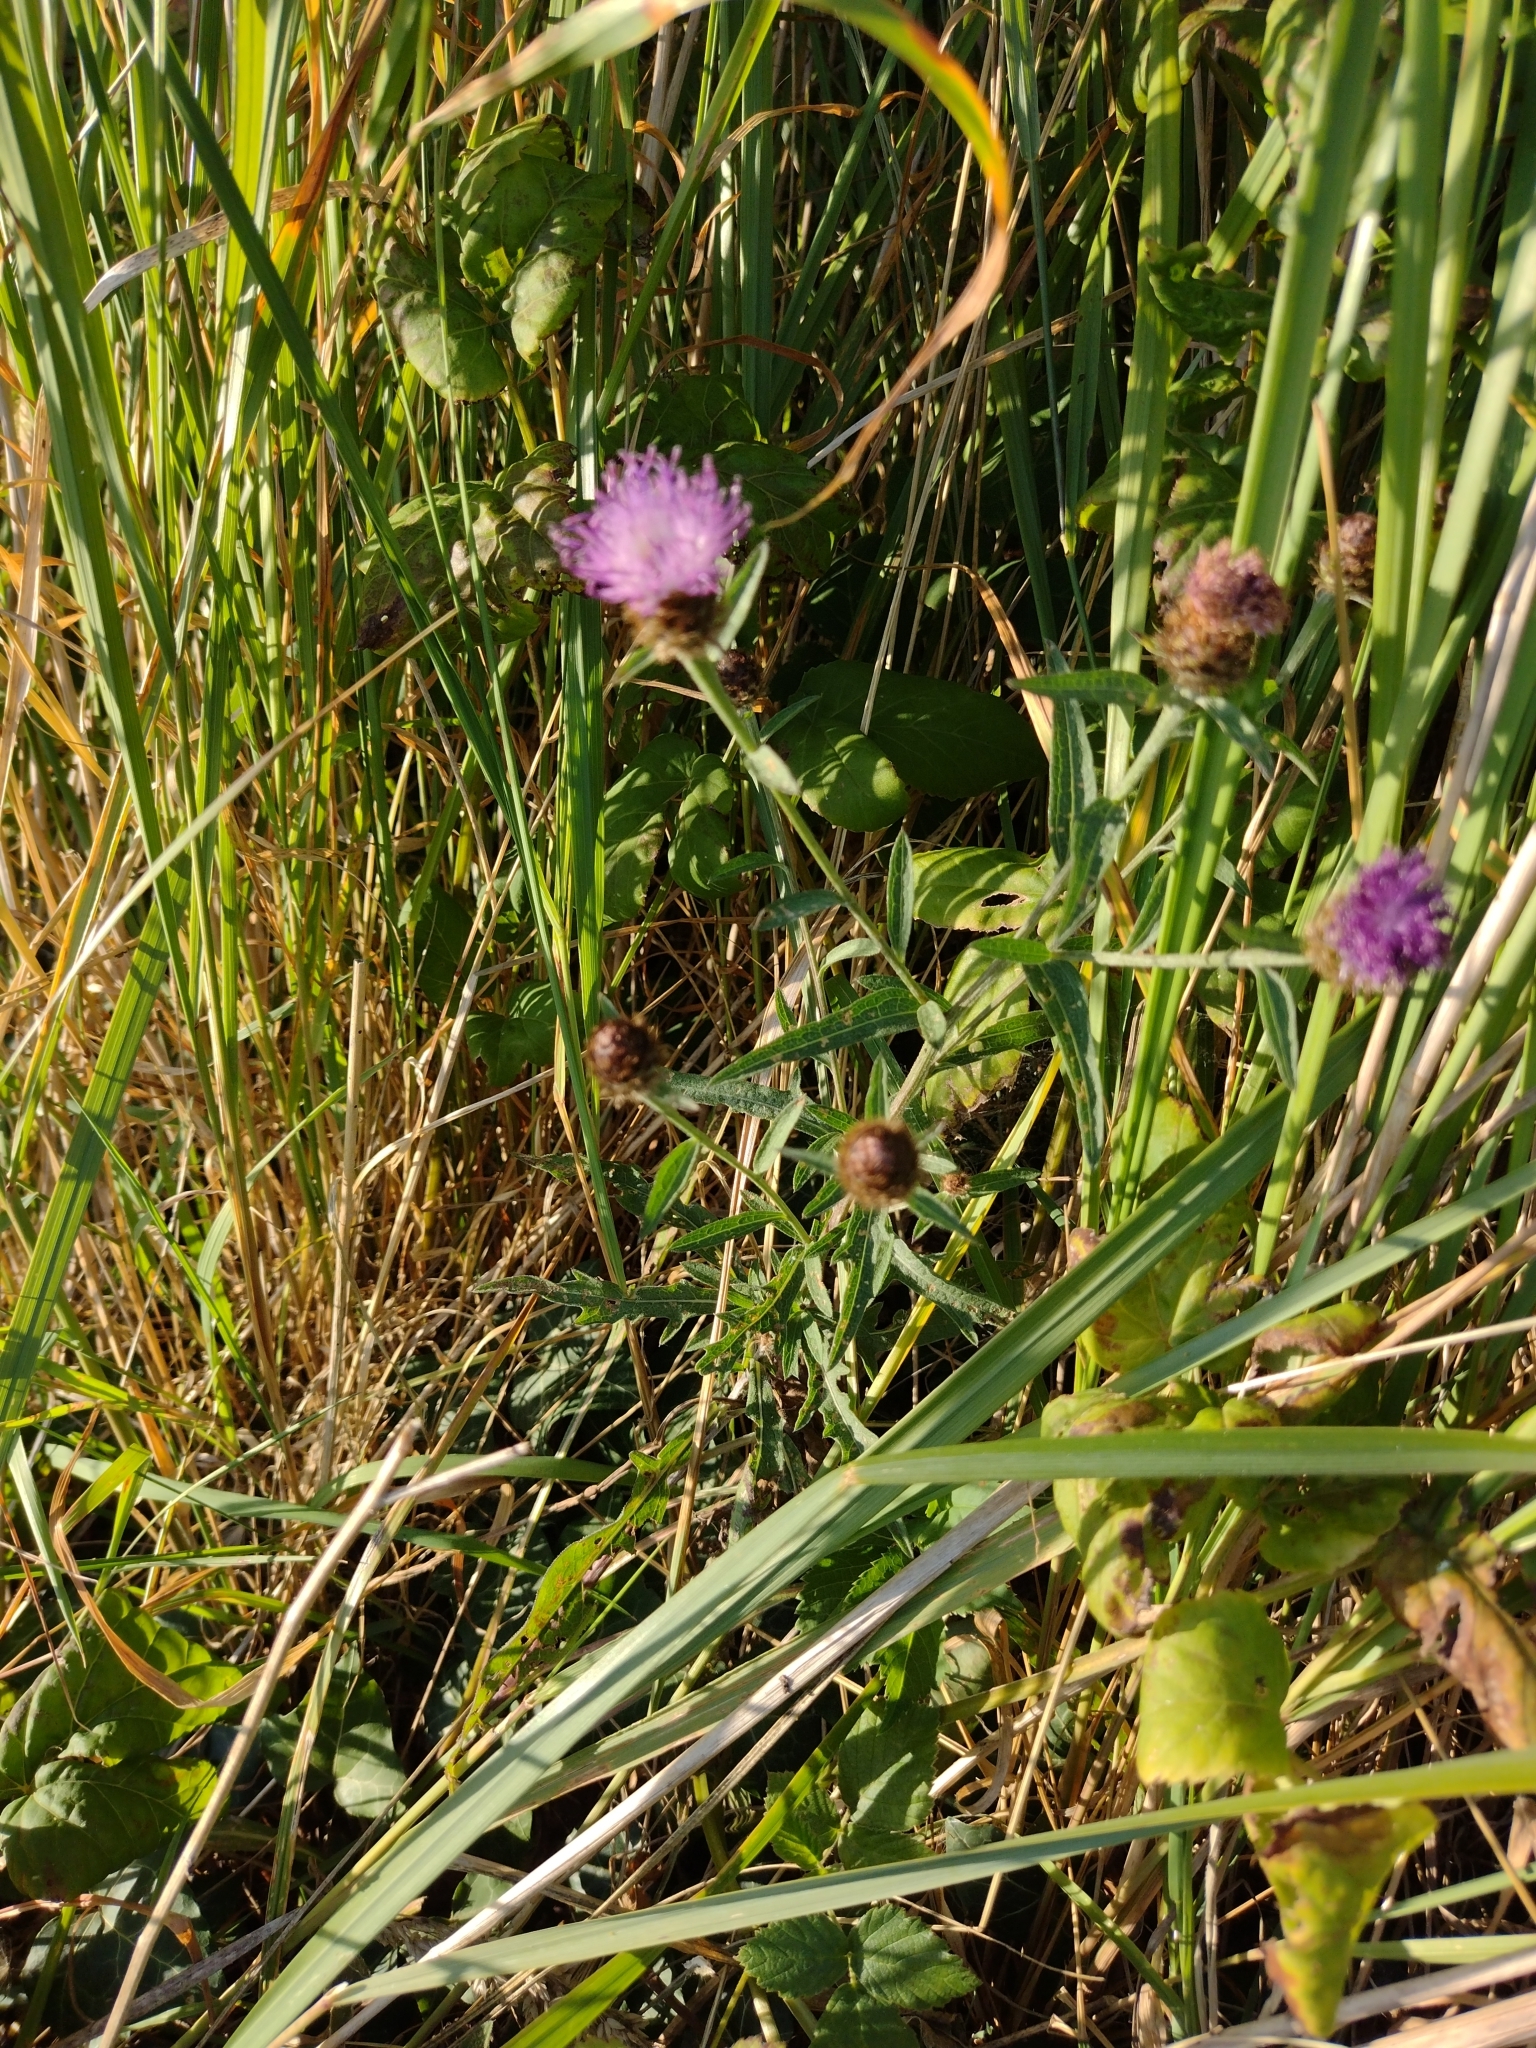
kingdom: Plantae
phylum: Tracheophyta
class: Magnoliopsida
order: Asterales
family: Asteraceae
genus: Centaurea
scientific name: Centaurea nigra
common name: Lesser knapweed
